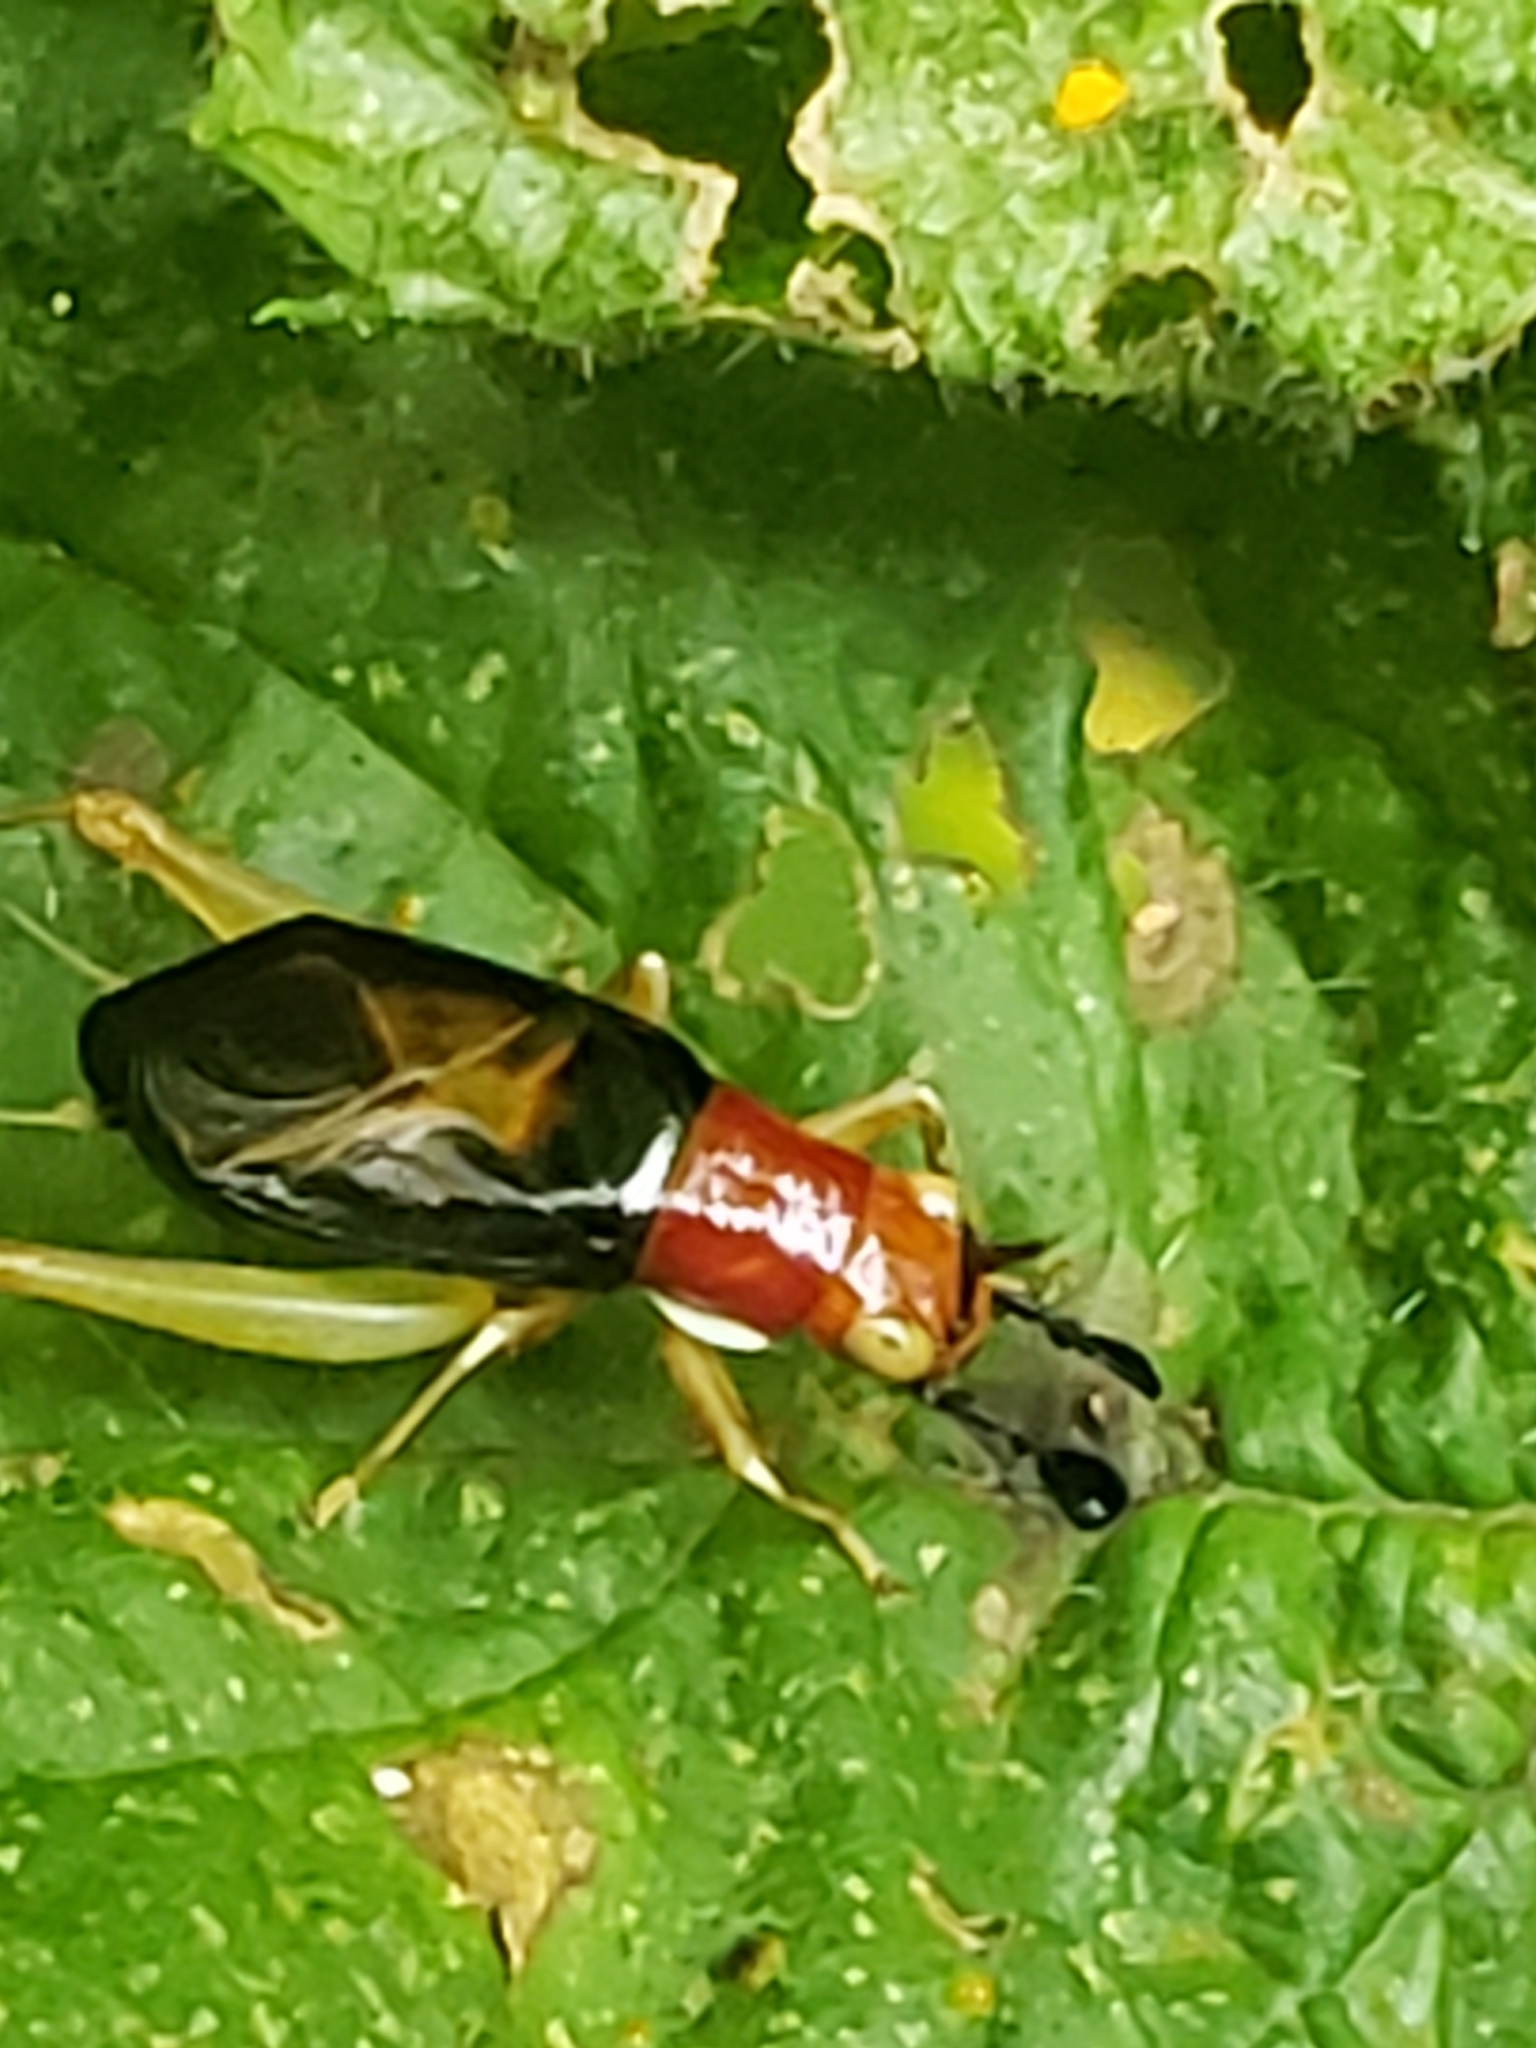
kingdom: Animalia
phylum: Arthropoda
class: Insecta
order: Orthoptera
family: Trigonidiidae
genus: Phyllopalpus
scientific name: Phyllopalpus pulchellus
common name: Handsome trig
